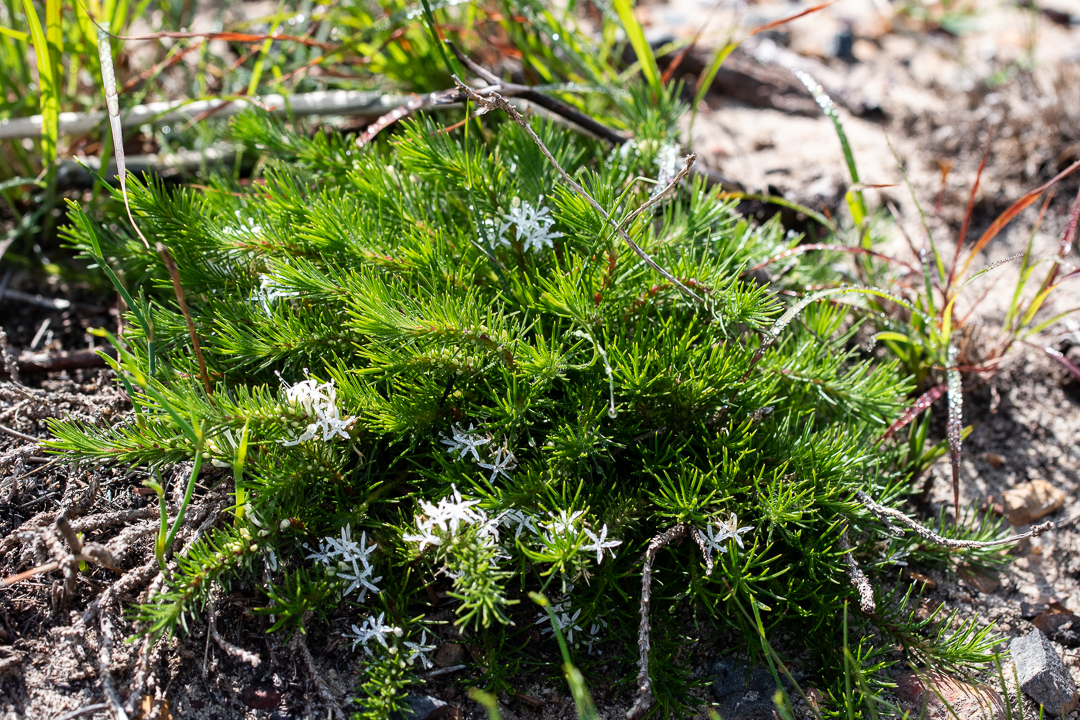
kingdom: Plantae
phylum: Tracheophyta
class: Magnoliopsida
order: Asterales
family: Campanulaceae
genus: Merciera
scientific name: Merciera leptoloba
